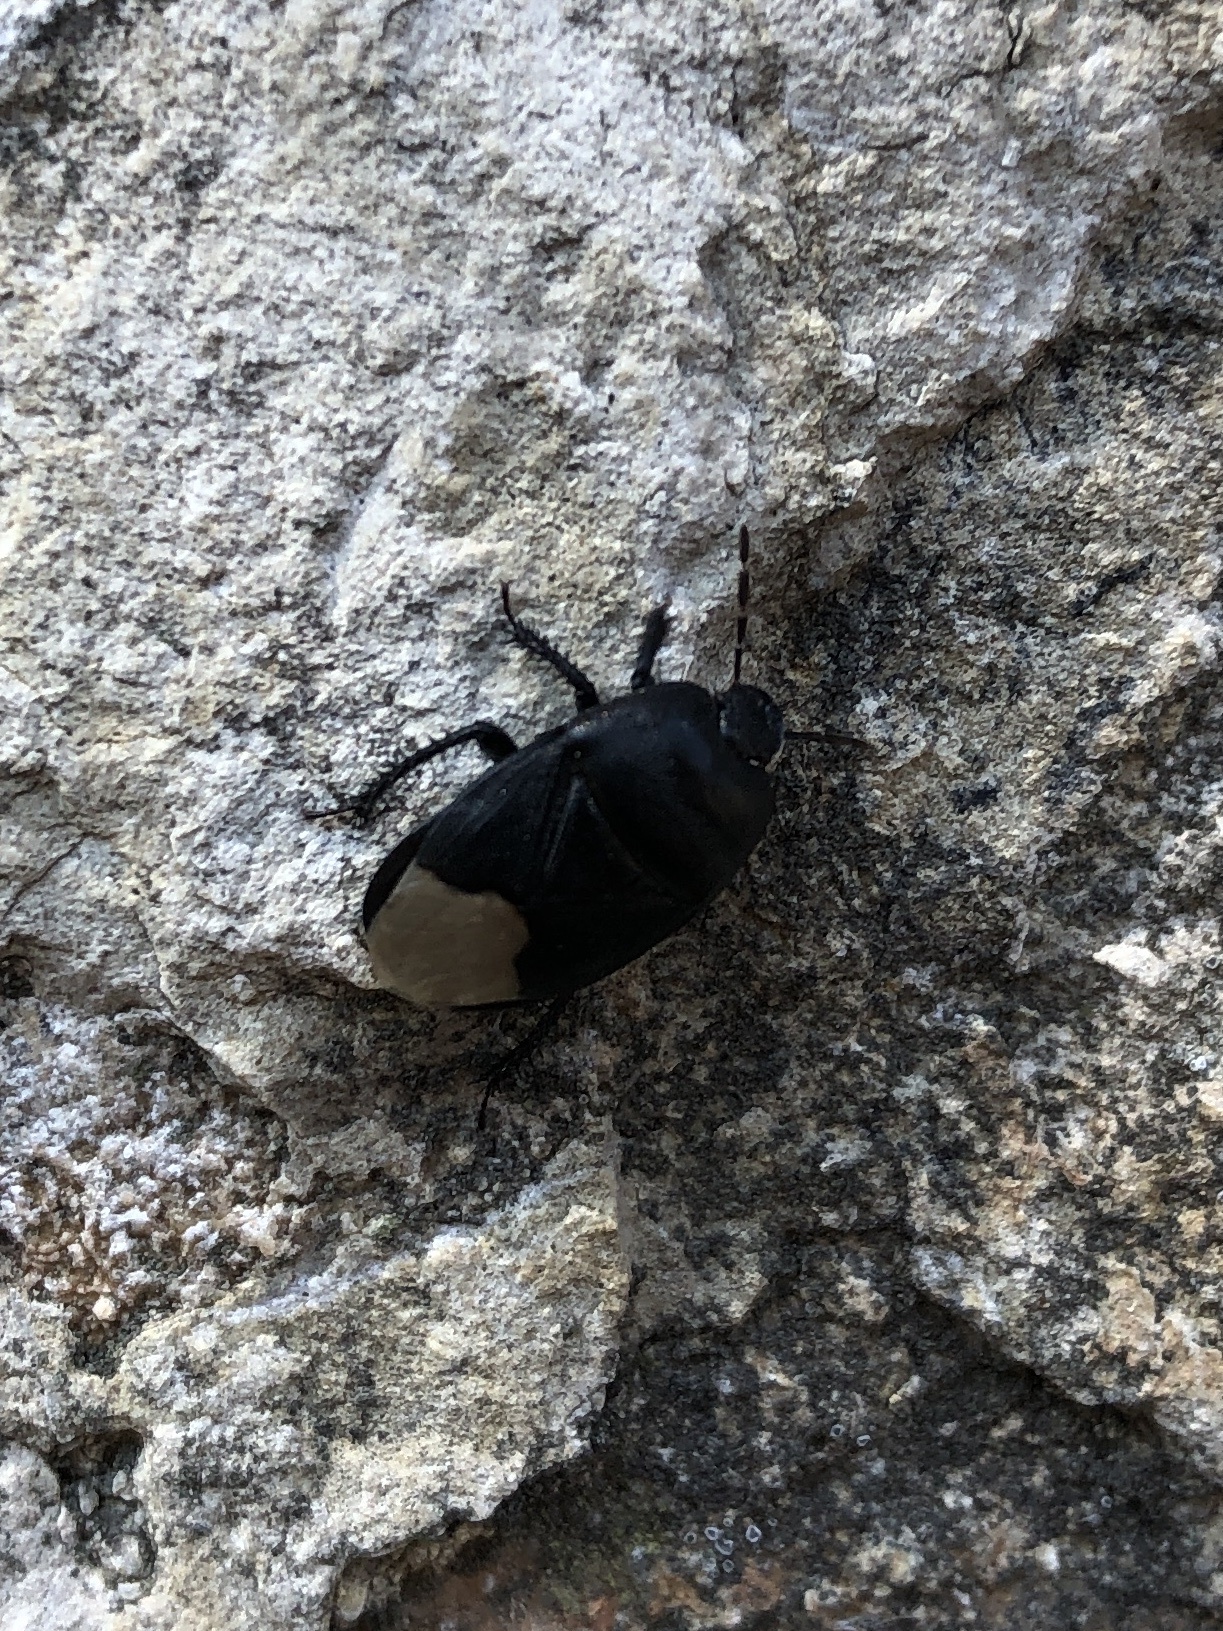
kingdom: Animalia
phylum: Arthropoda
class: Insecta
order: Hemiptera
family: Cydnidae
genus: Cydnus
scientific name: Cydnus aterrimus
